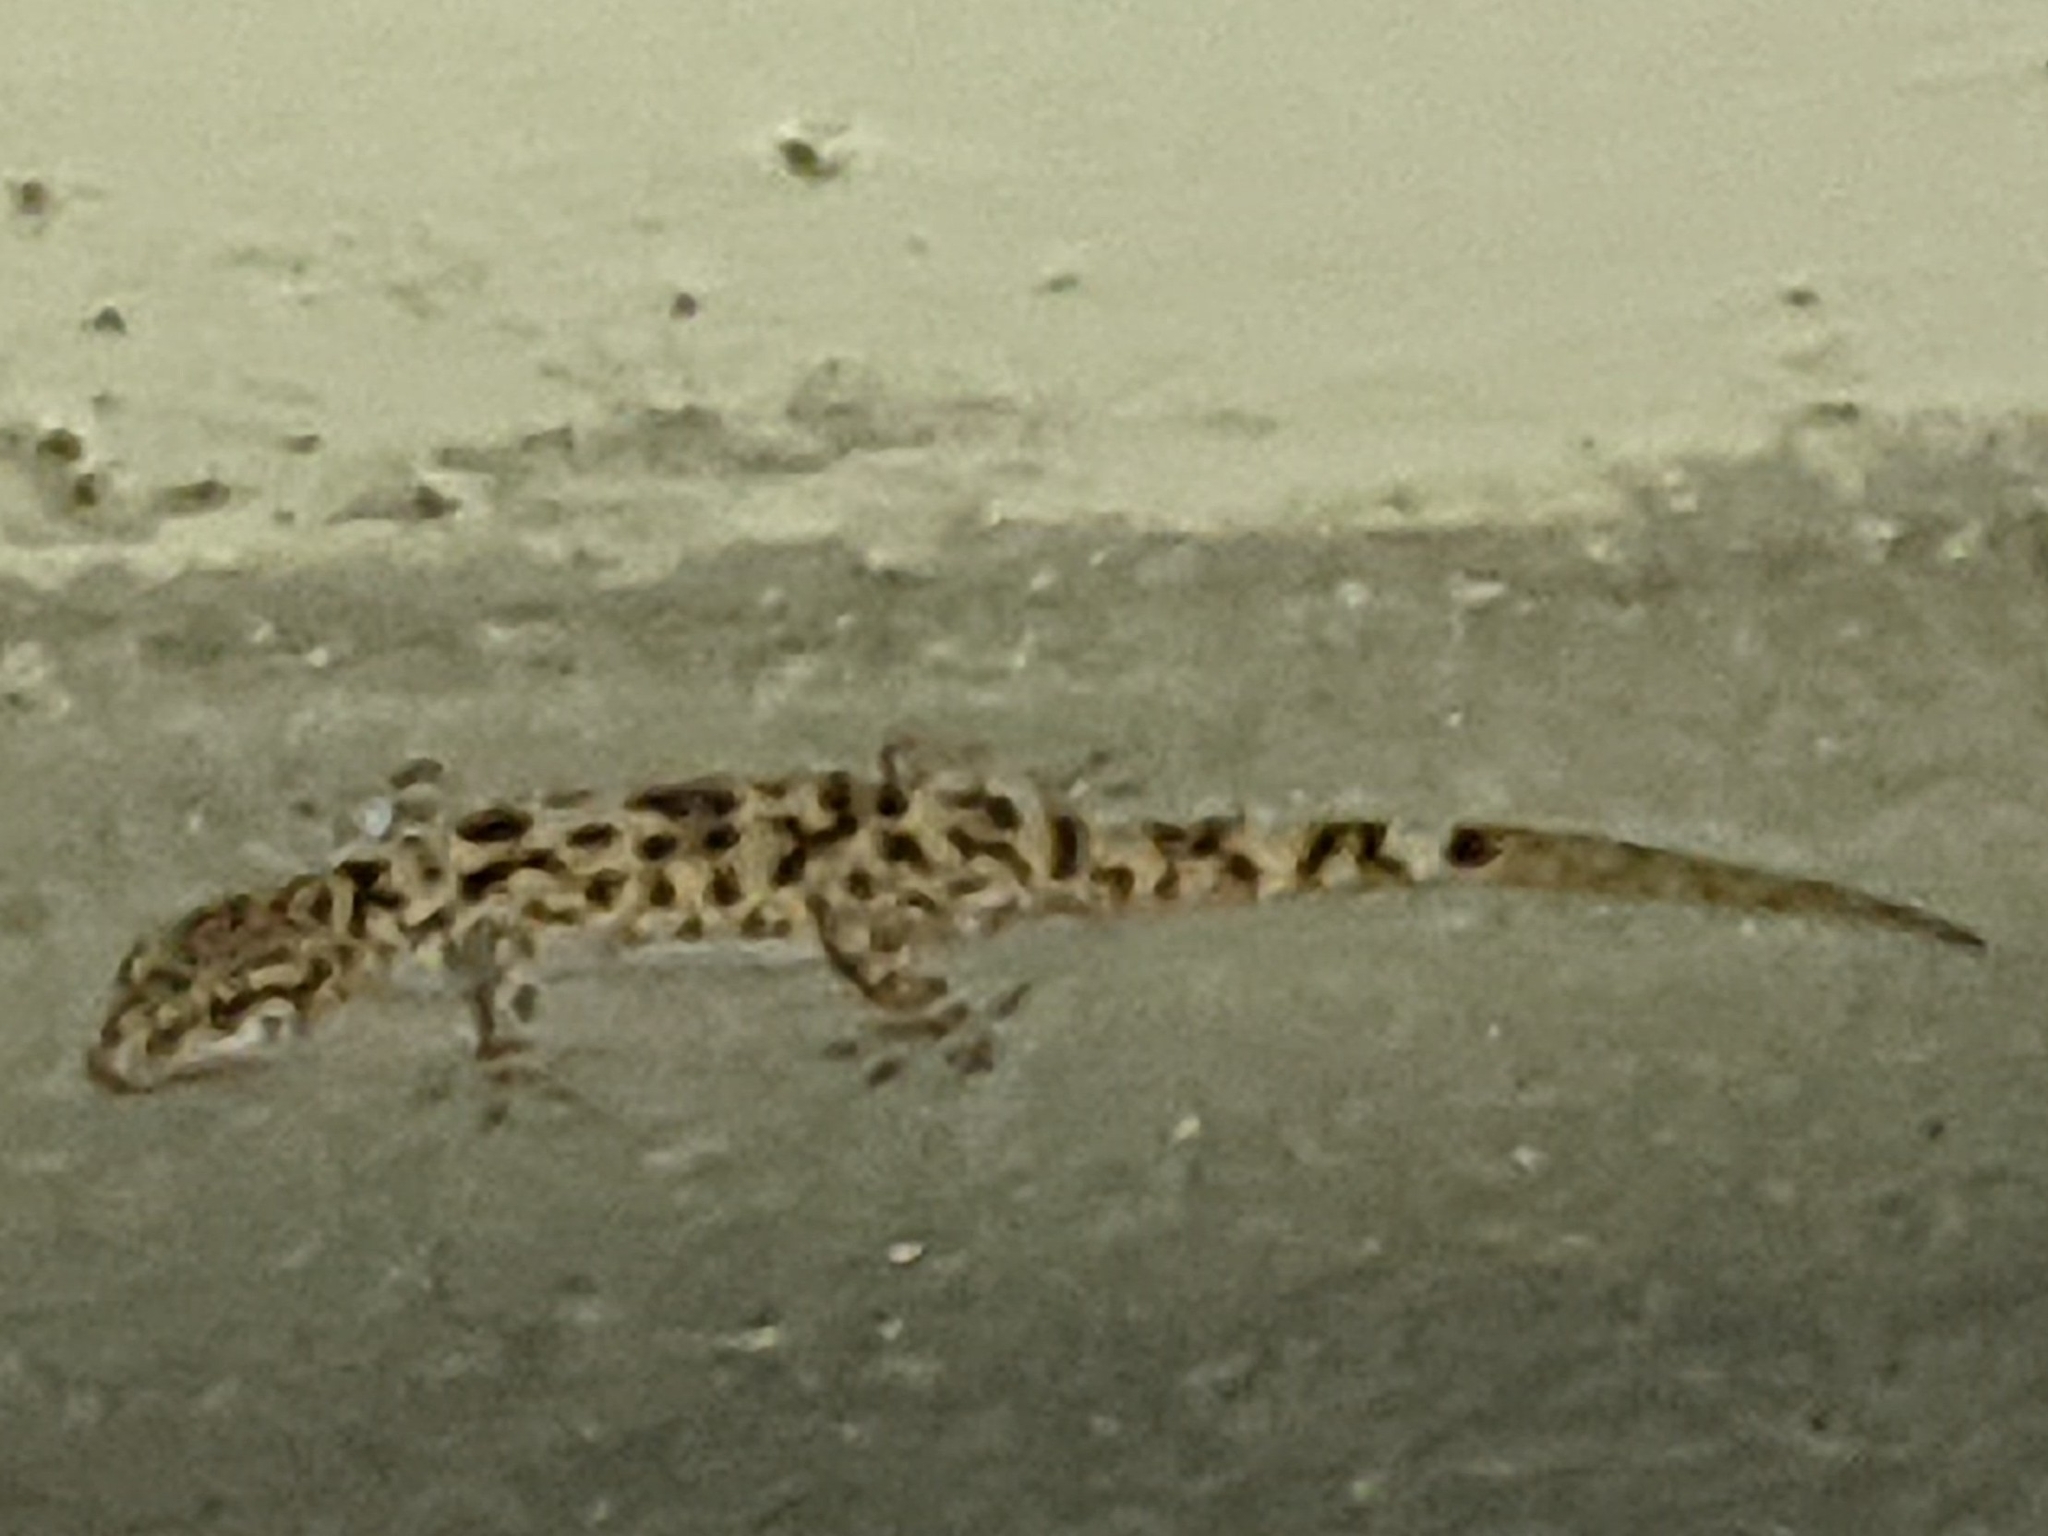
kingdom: Animalia
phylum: Chordata
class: Squamata
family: Gekkonidae
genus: Hemidactylus
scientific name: Hemidactylus turcicus
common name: Turkish gecko
